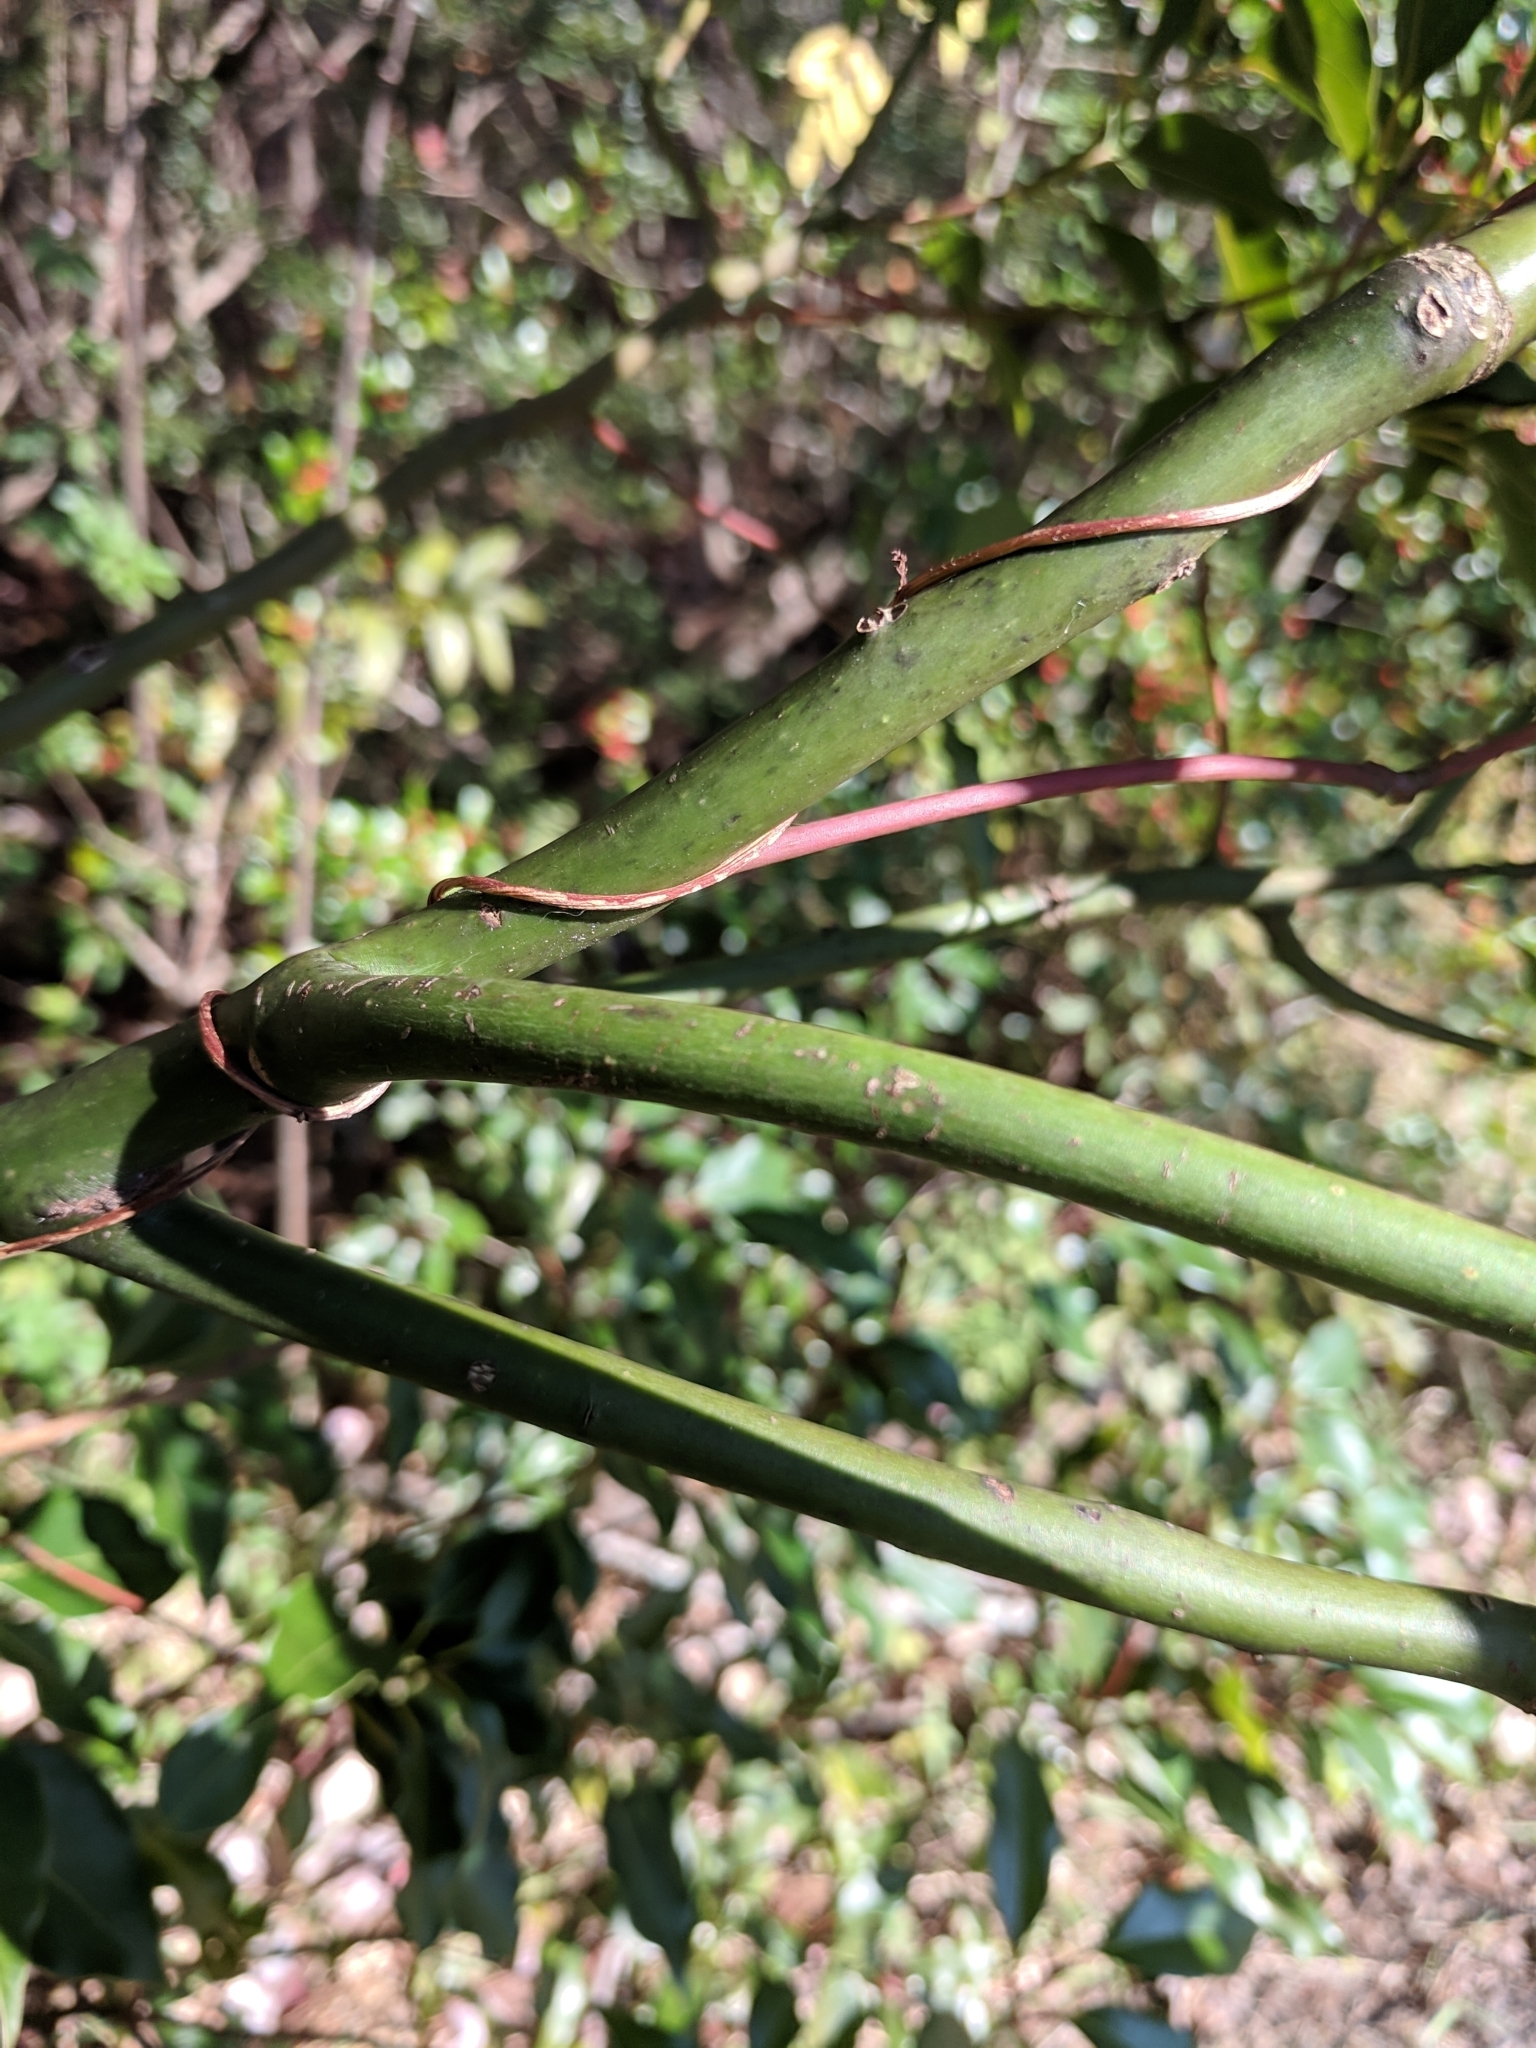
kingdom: Plantae
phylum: Tracheophyta
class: Magnoliopsida
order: Laurales
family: Lauraceae
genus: Cinnamomum
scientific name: Cinnamomum camphora
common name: Camphortree
